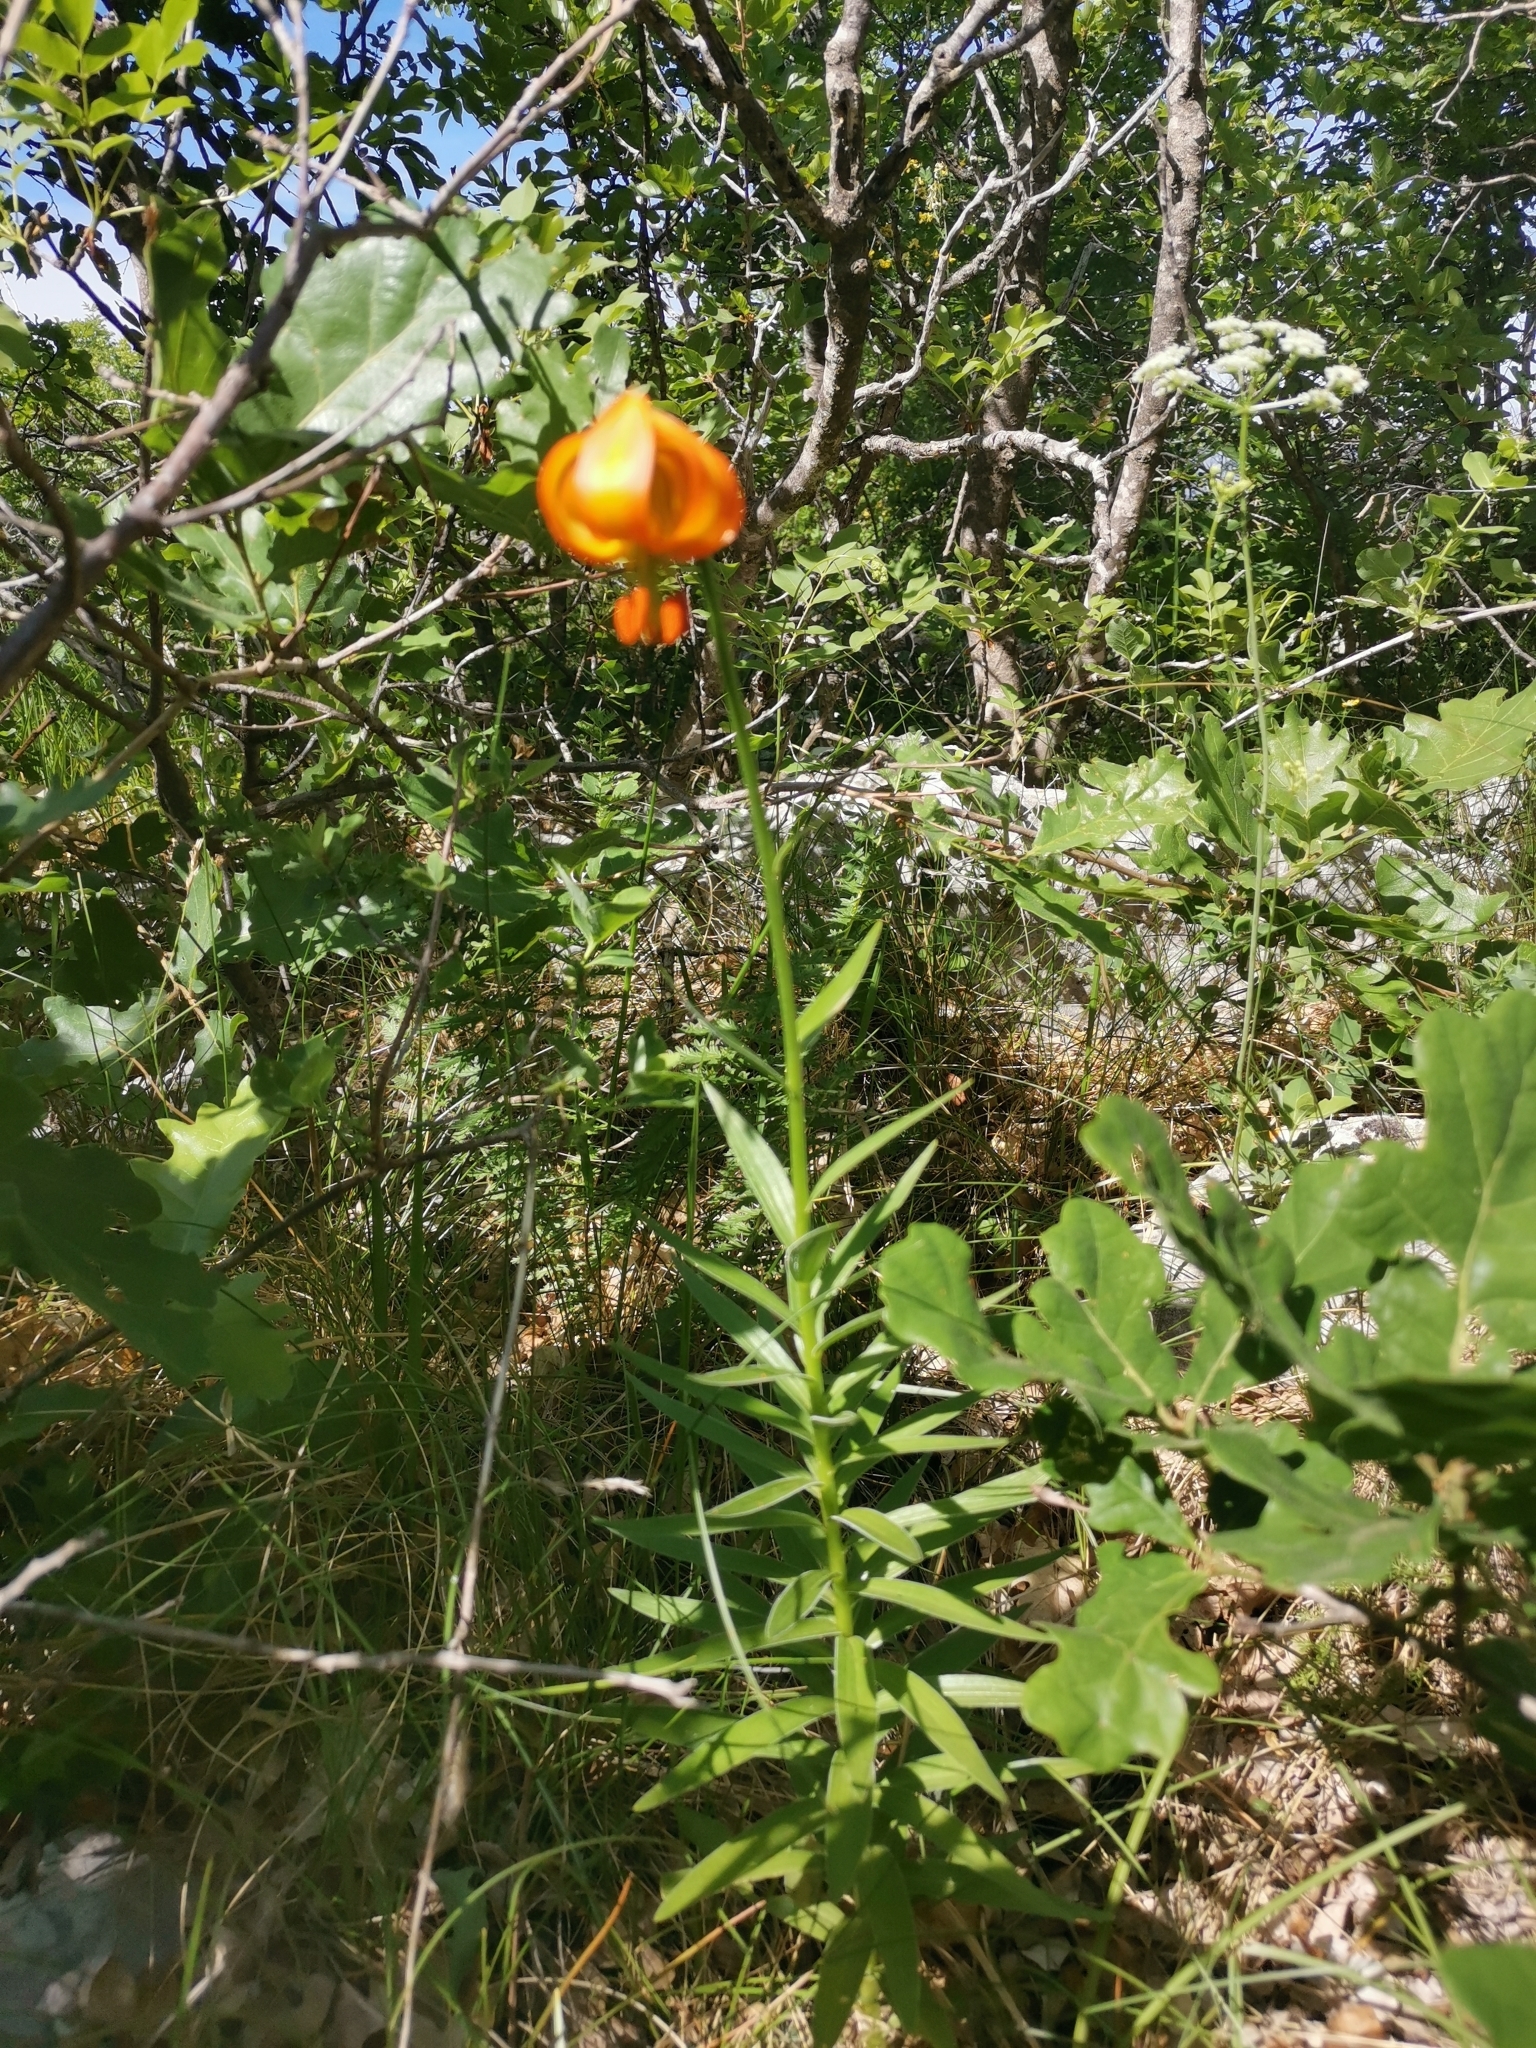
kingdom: Plantae
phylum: Tracheophyta
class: Liliopsida
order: Liliales
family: Liliaceae
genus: Lilium
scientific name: Lilium carniolicum
